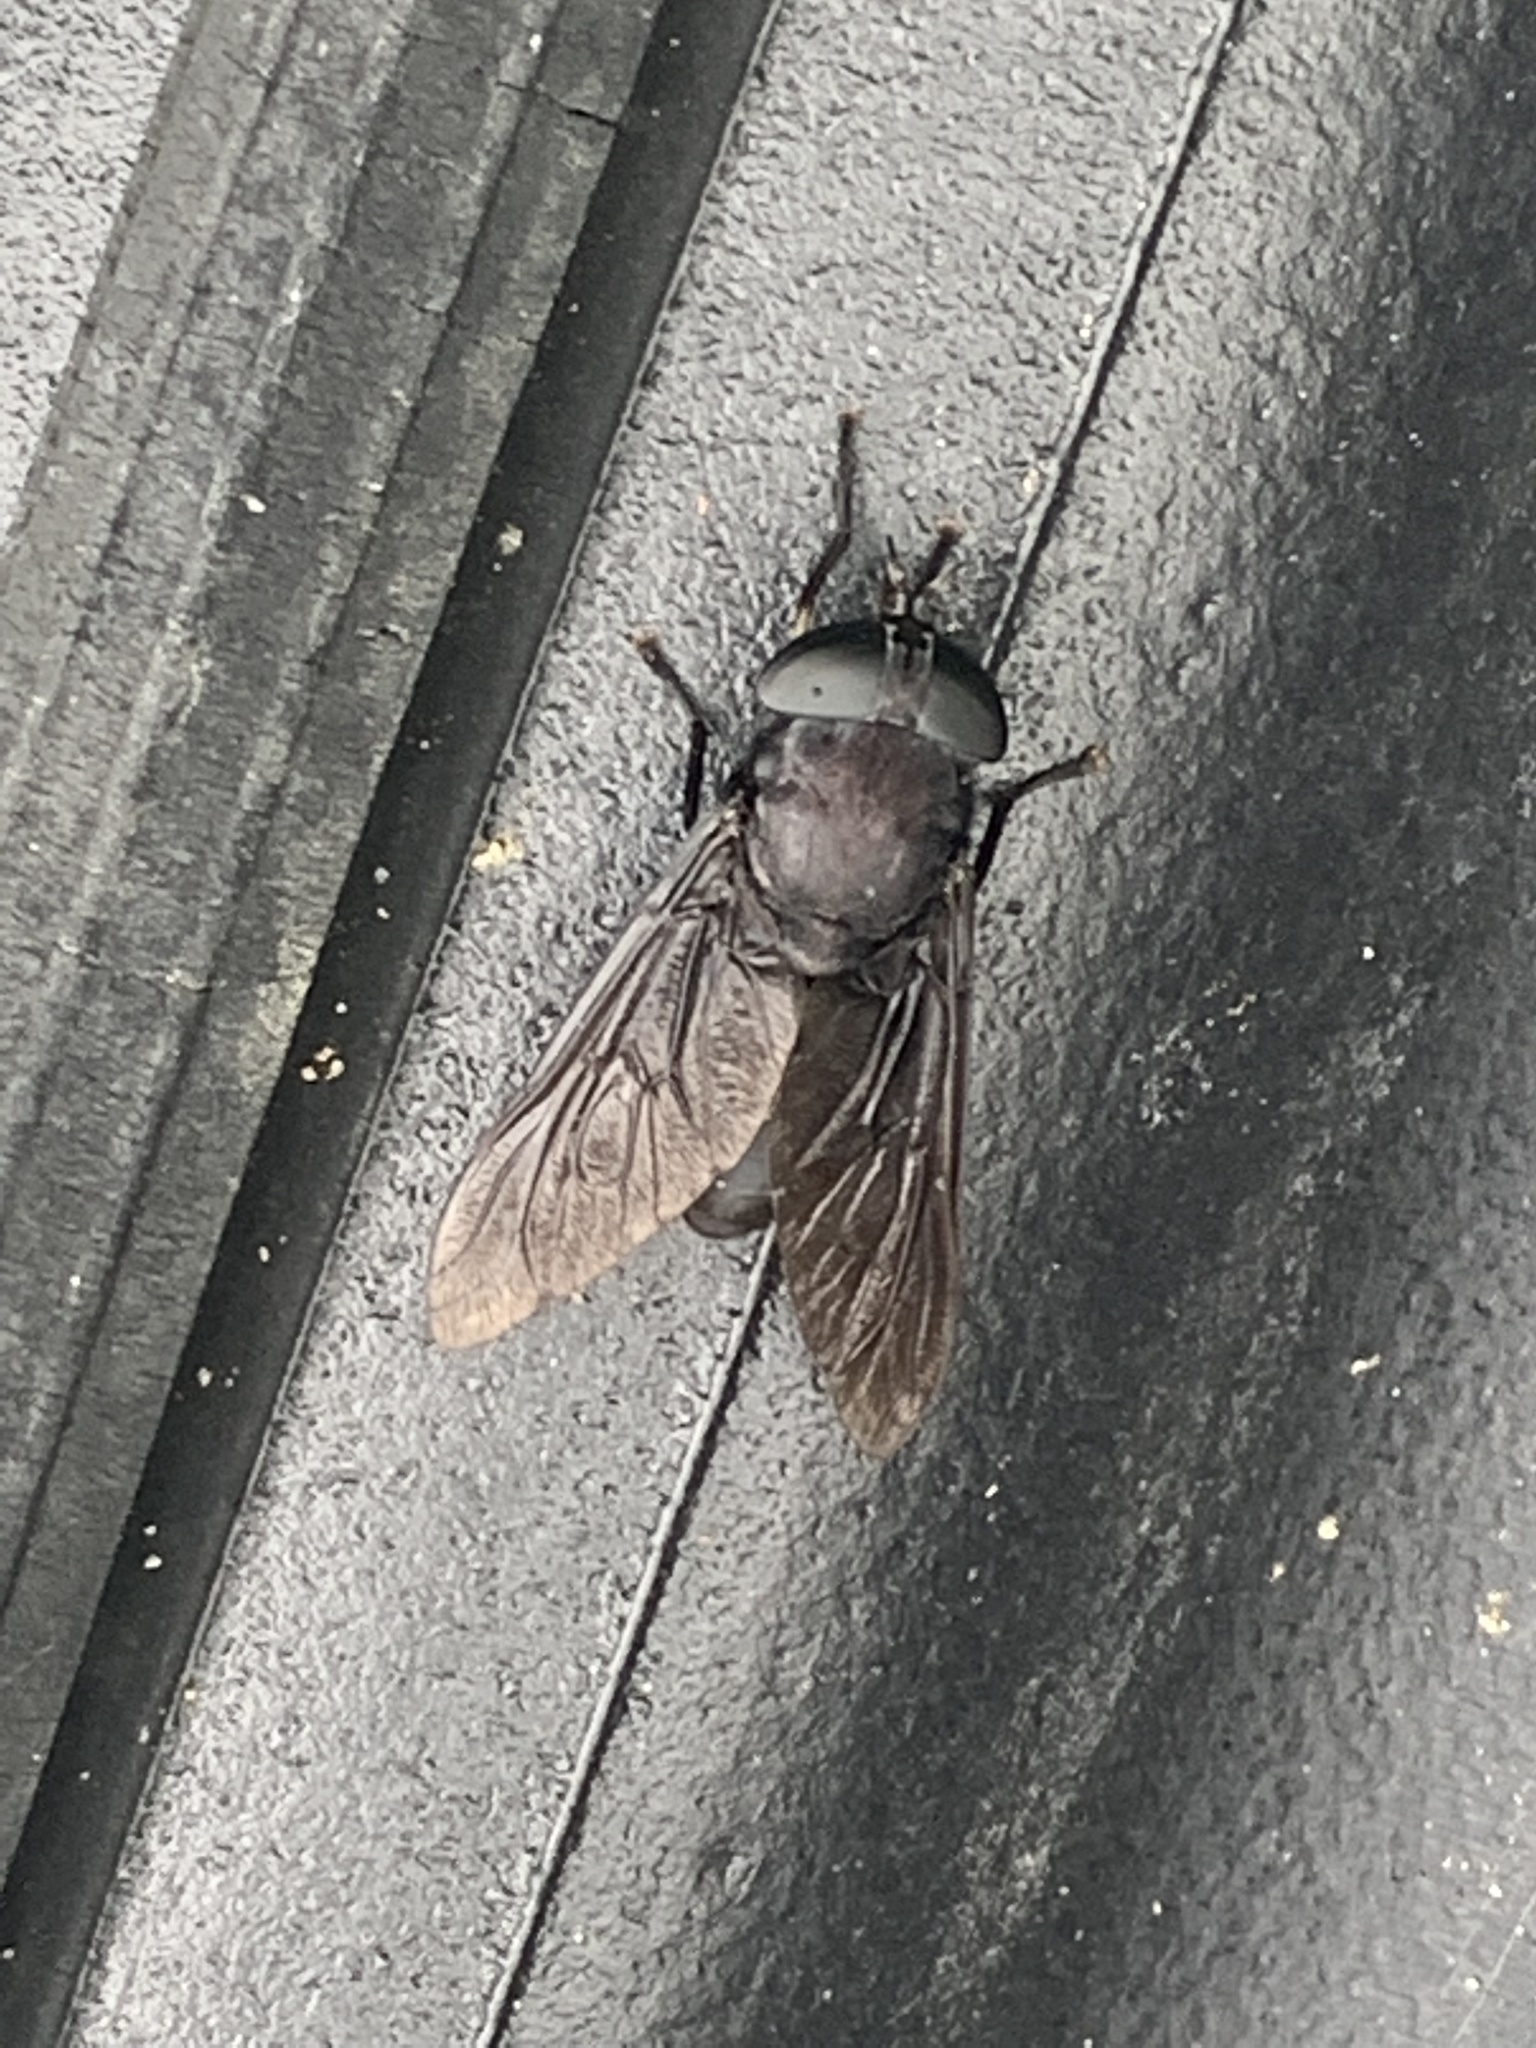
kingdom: Animalia
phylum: Arthropoda
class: Insecta
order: Diptera
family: Tabanidae
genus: Tabanus
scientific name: Tabanus atratus
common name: Black horse fly
